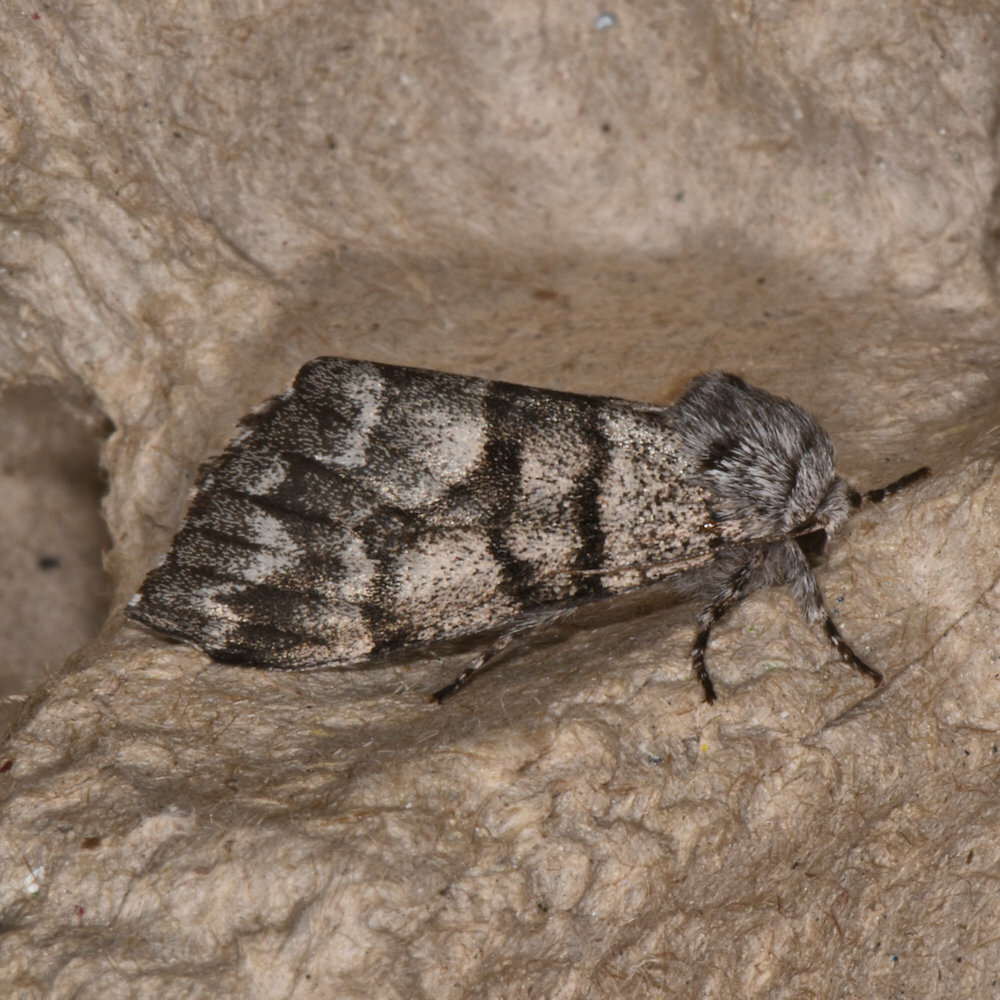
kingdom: Animalia
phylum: Arthropoda
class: Insecta
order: Lepidoptera
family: Noctuidae
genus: Panthea
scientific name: Panthea furcilla
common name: Eastern panthea moth
